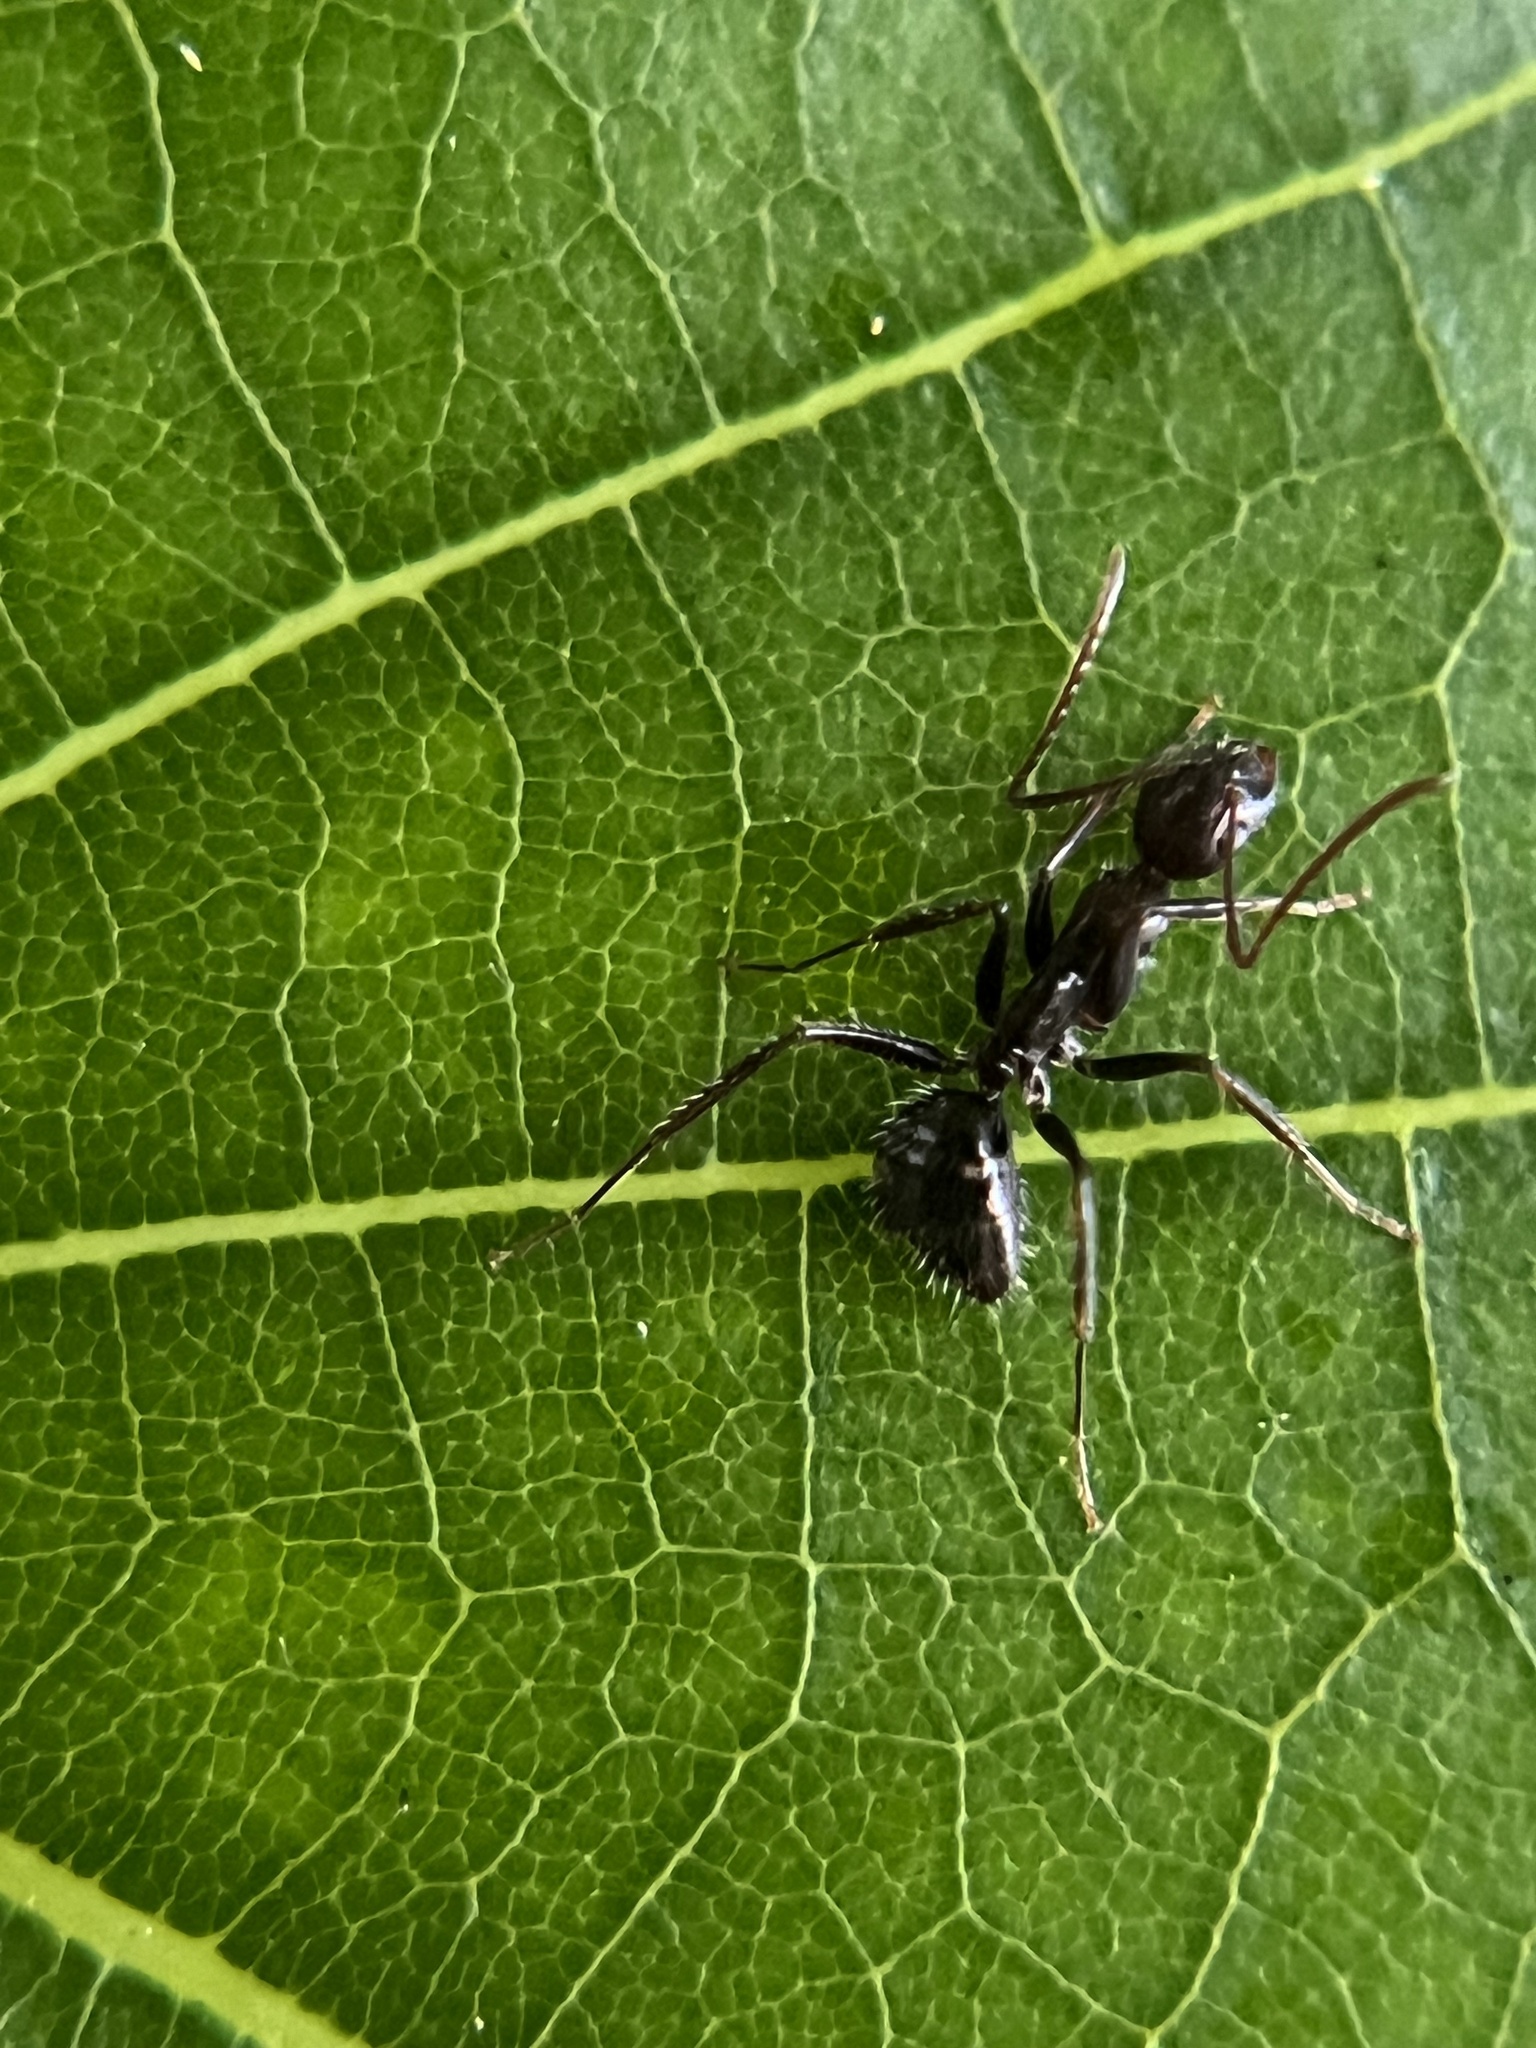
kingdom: Animalia
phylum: Arthropoda
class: Insecta
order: Hymenoptera
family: Formicidae
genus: Camponotus
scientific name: Camponotus sexguttatus
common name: Neotropical carpenter ant
